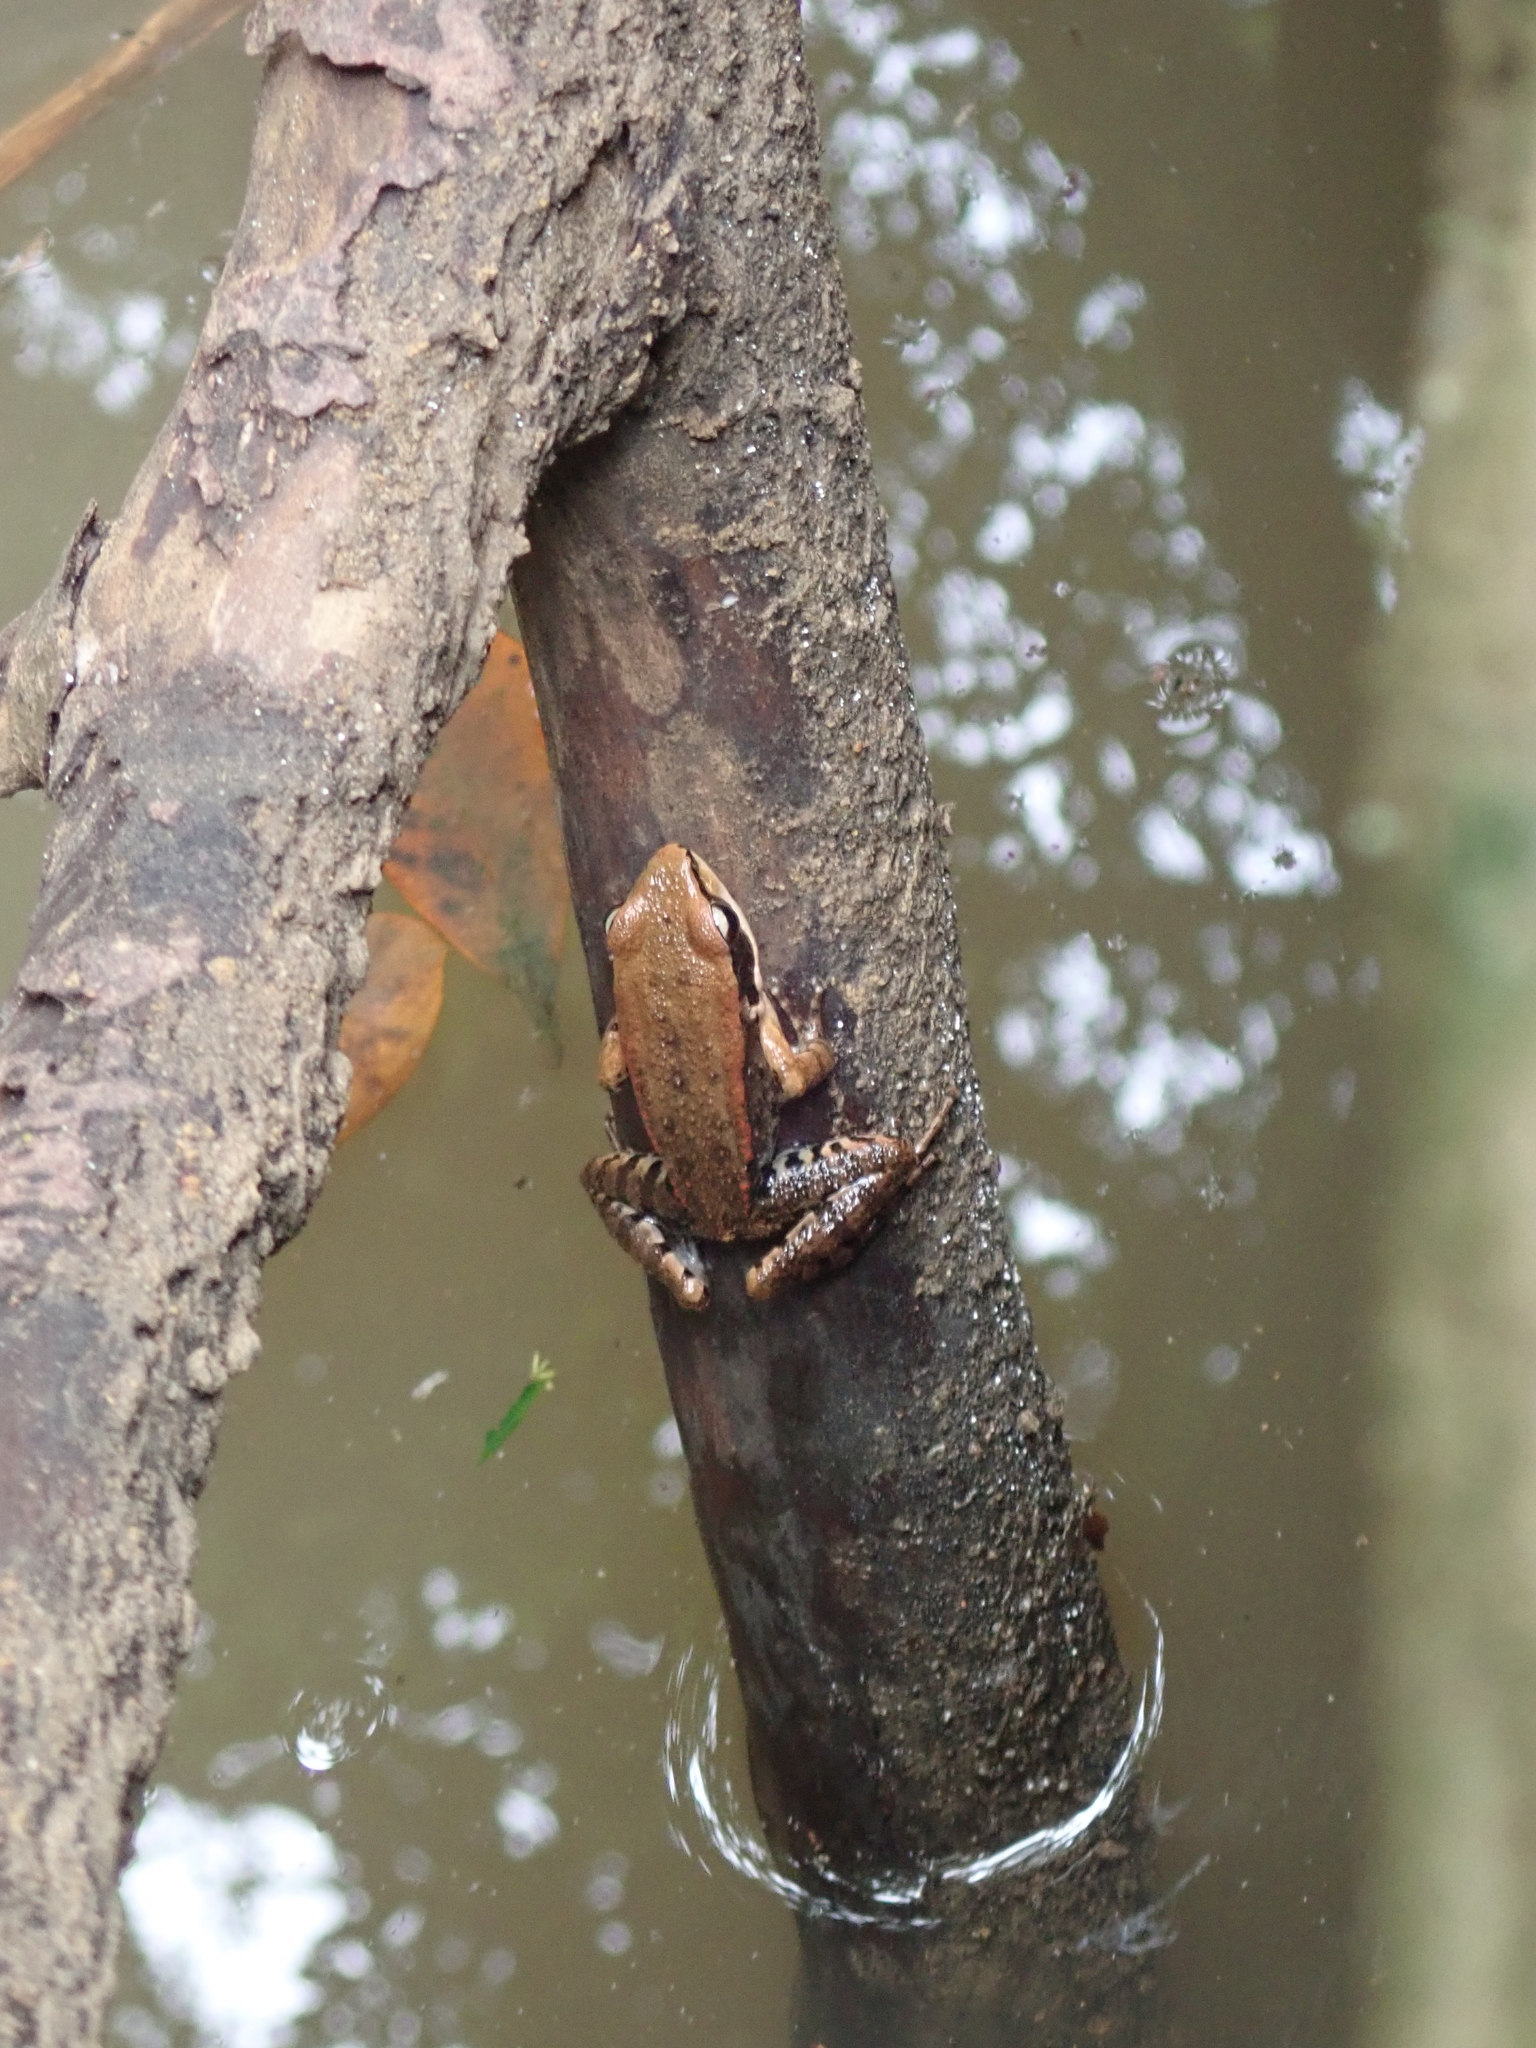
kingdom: Animalia
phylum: Chordata
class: Amphibia
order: Anura
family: Ranidae
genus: Hylarana
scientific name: Hylarana latouchii
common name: Broad-folded frog
